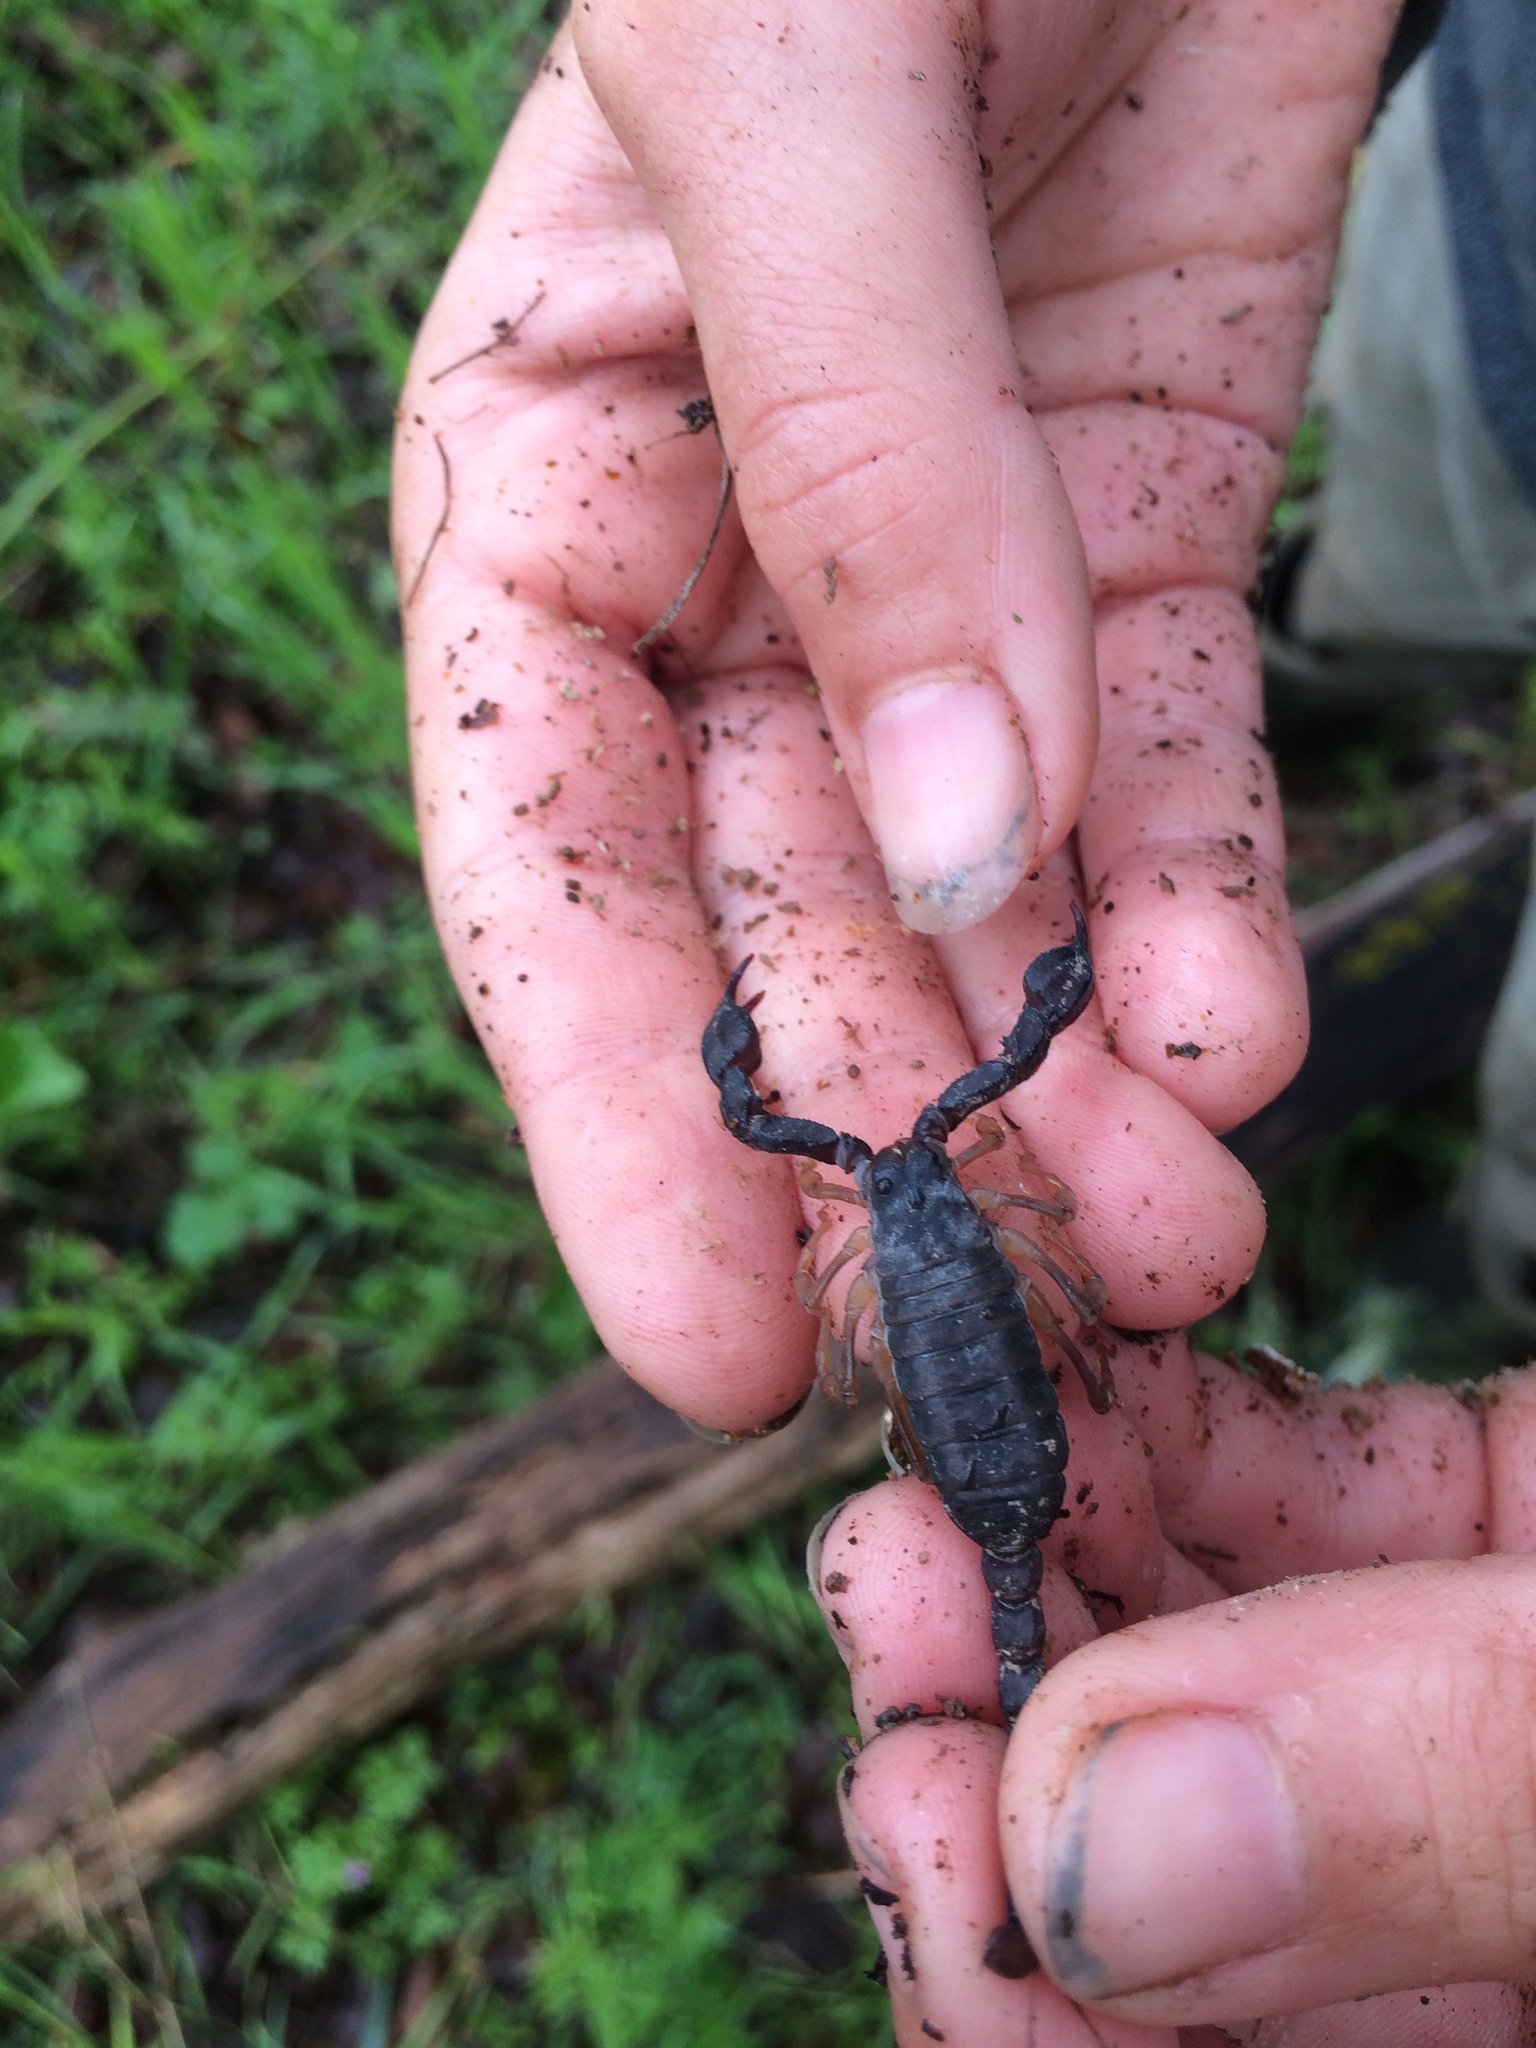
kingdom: Animalia
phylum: Arthropoda
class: Arachnida
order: Scorpiones
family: Chactidae
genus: Uroctonus
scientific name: Uroctonus mordax
